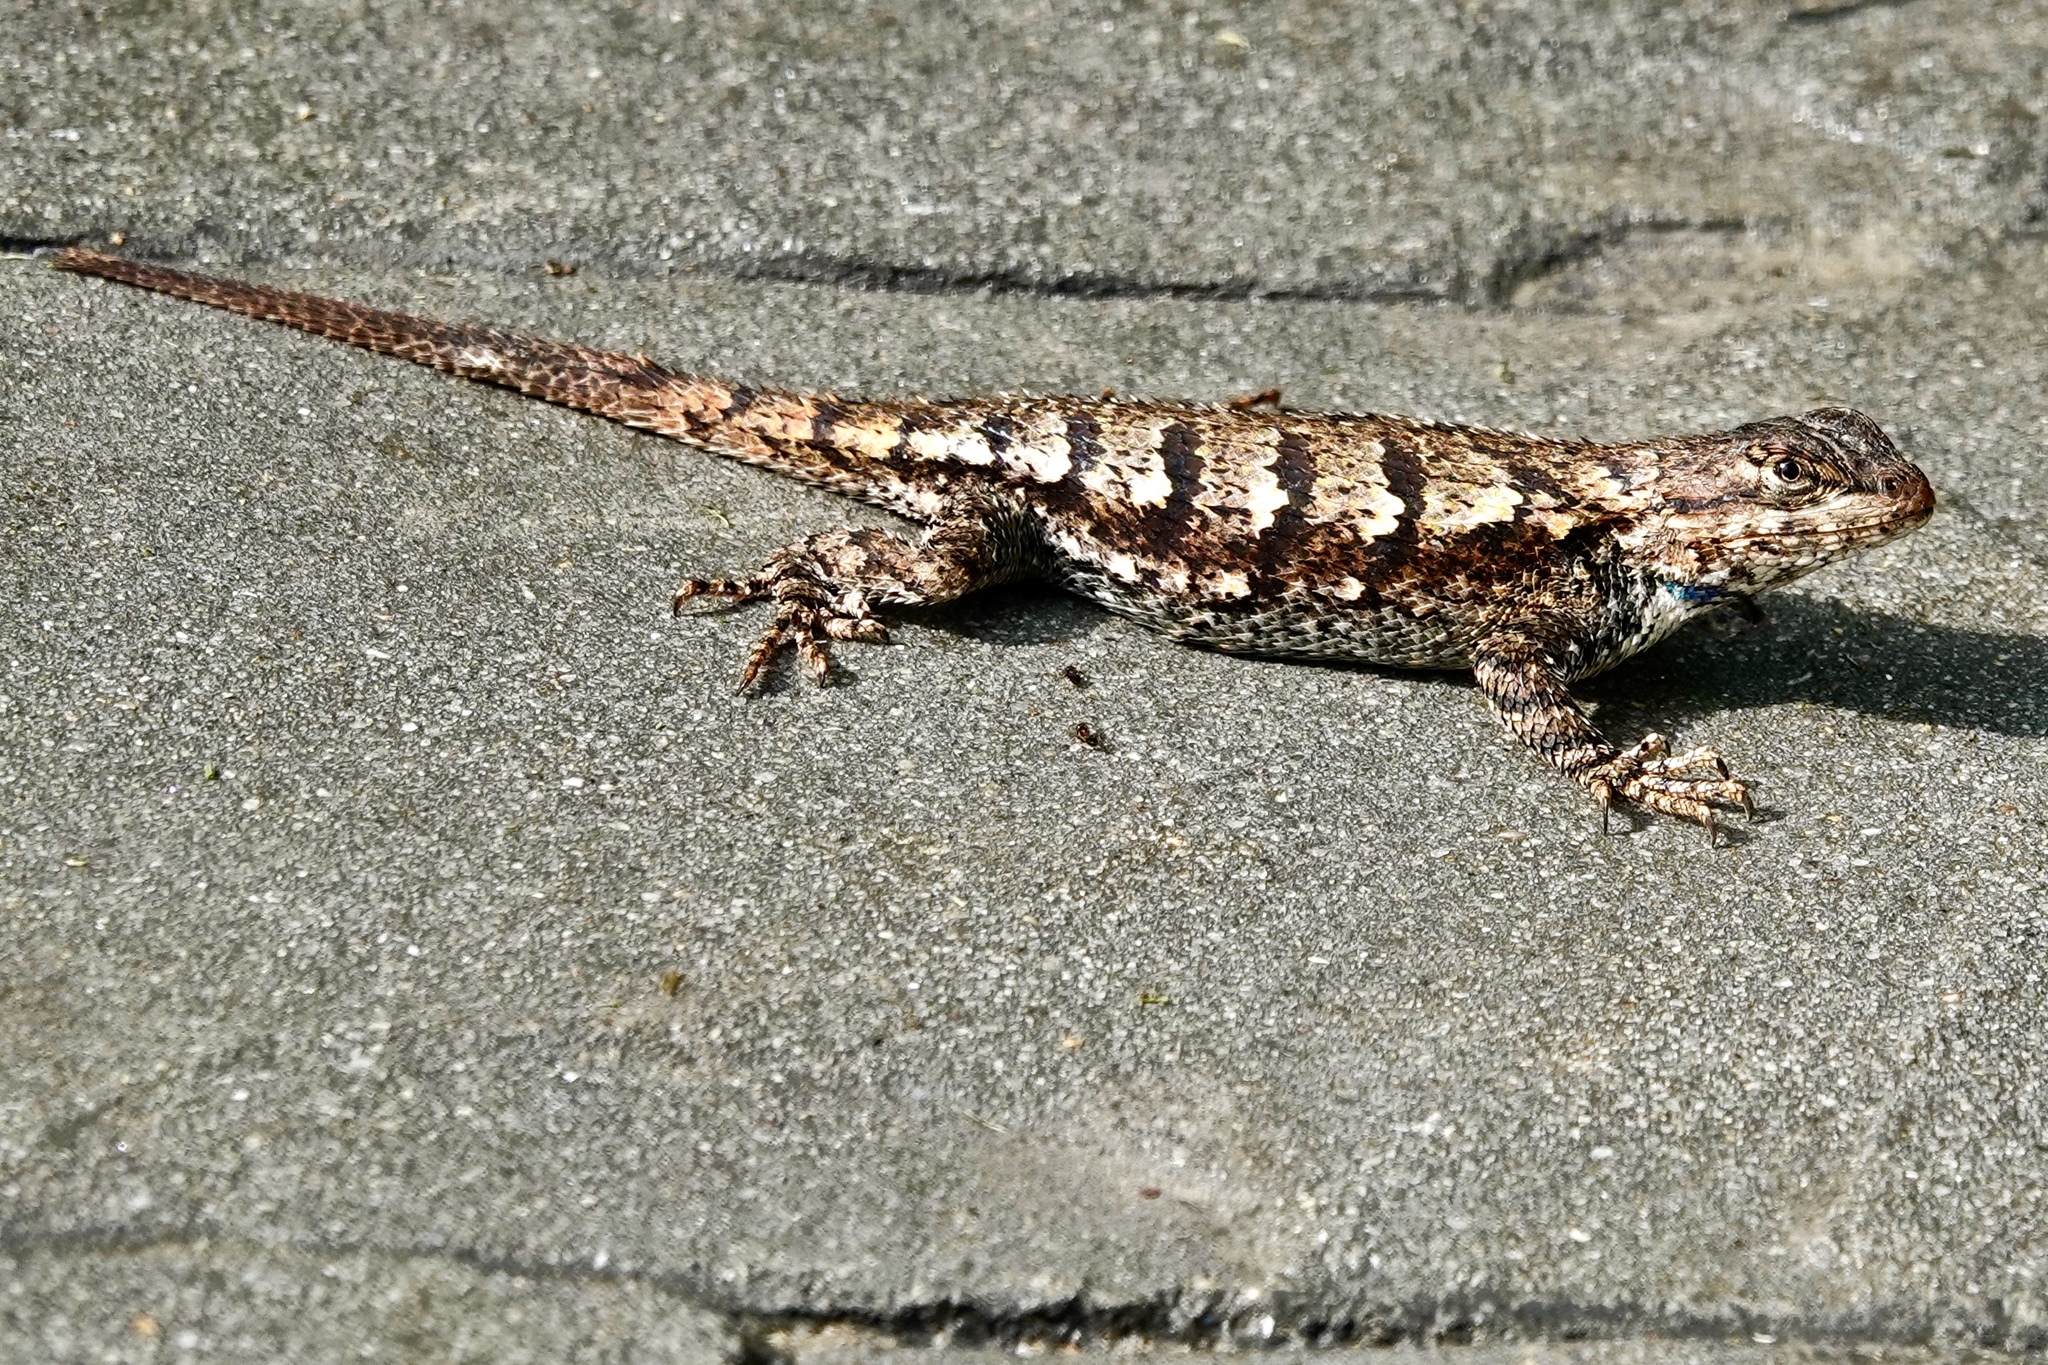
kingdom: Animalia
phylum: Chordata
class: Squamata
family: Phrynosomatidae
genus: Sceloporus
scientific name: Sceloporus undulatus
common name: Eastern fence lizard
